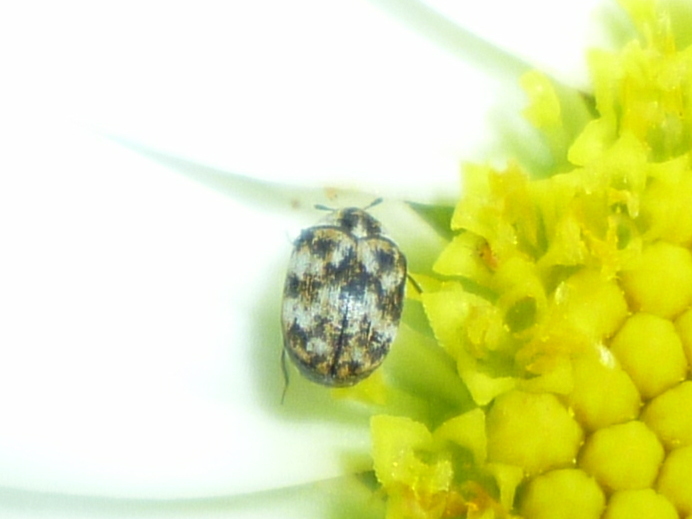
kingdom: Animalia
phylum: Arthropoda
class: Insecta
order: Coleoptera
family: Dermestidae
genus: Anthrenus
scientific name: Anthrenus verbasci
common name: Varied carpet beetle
